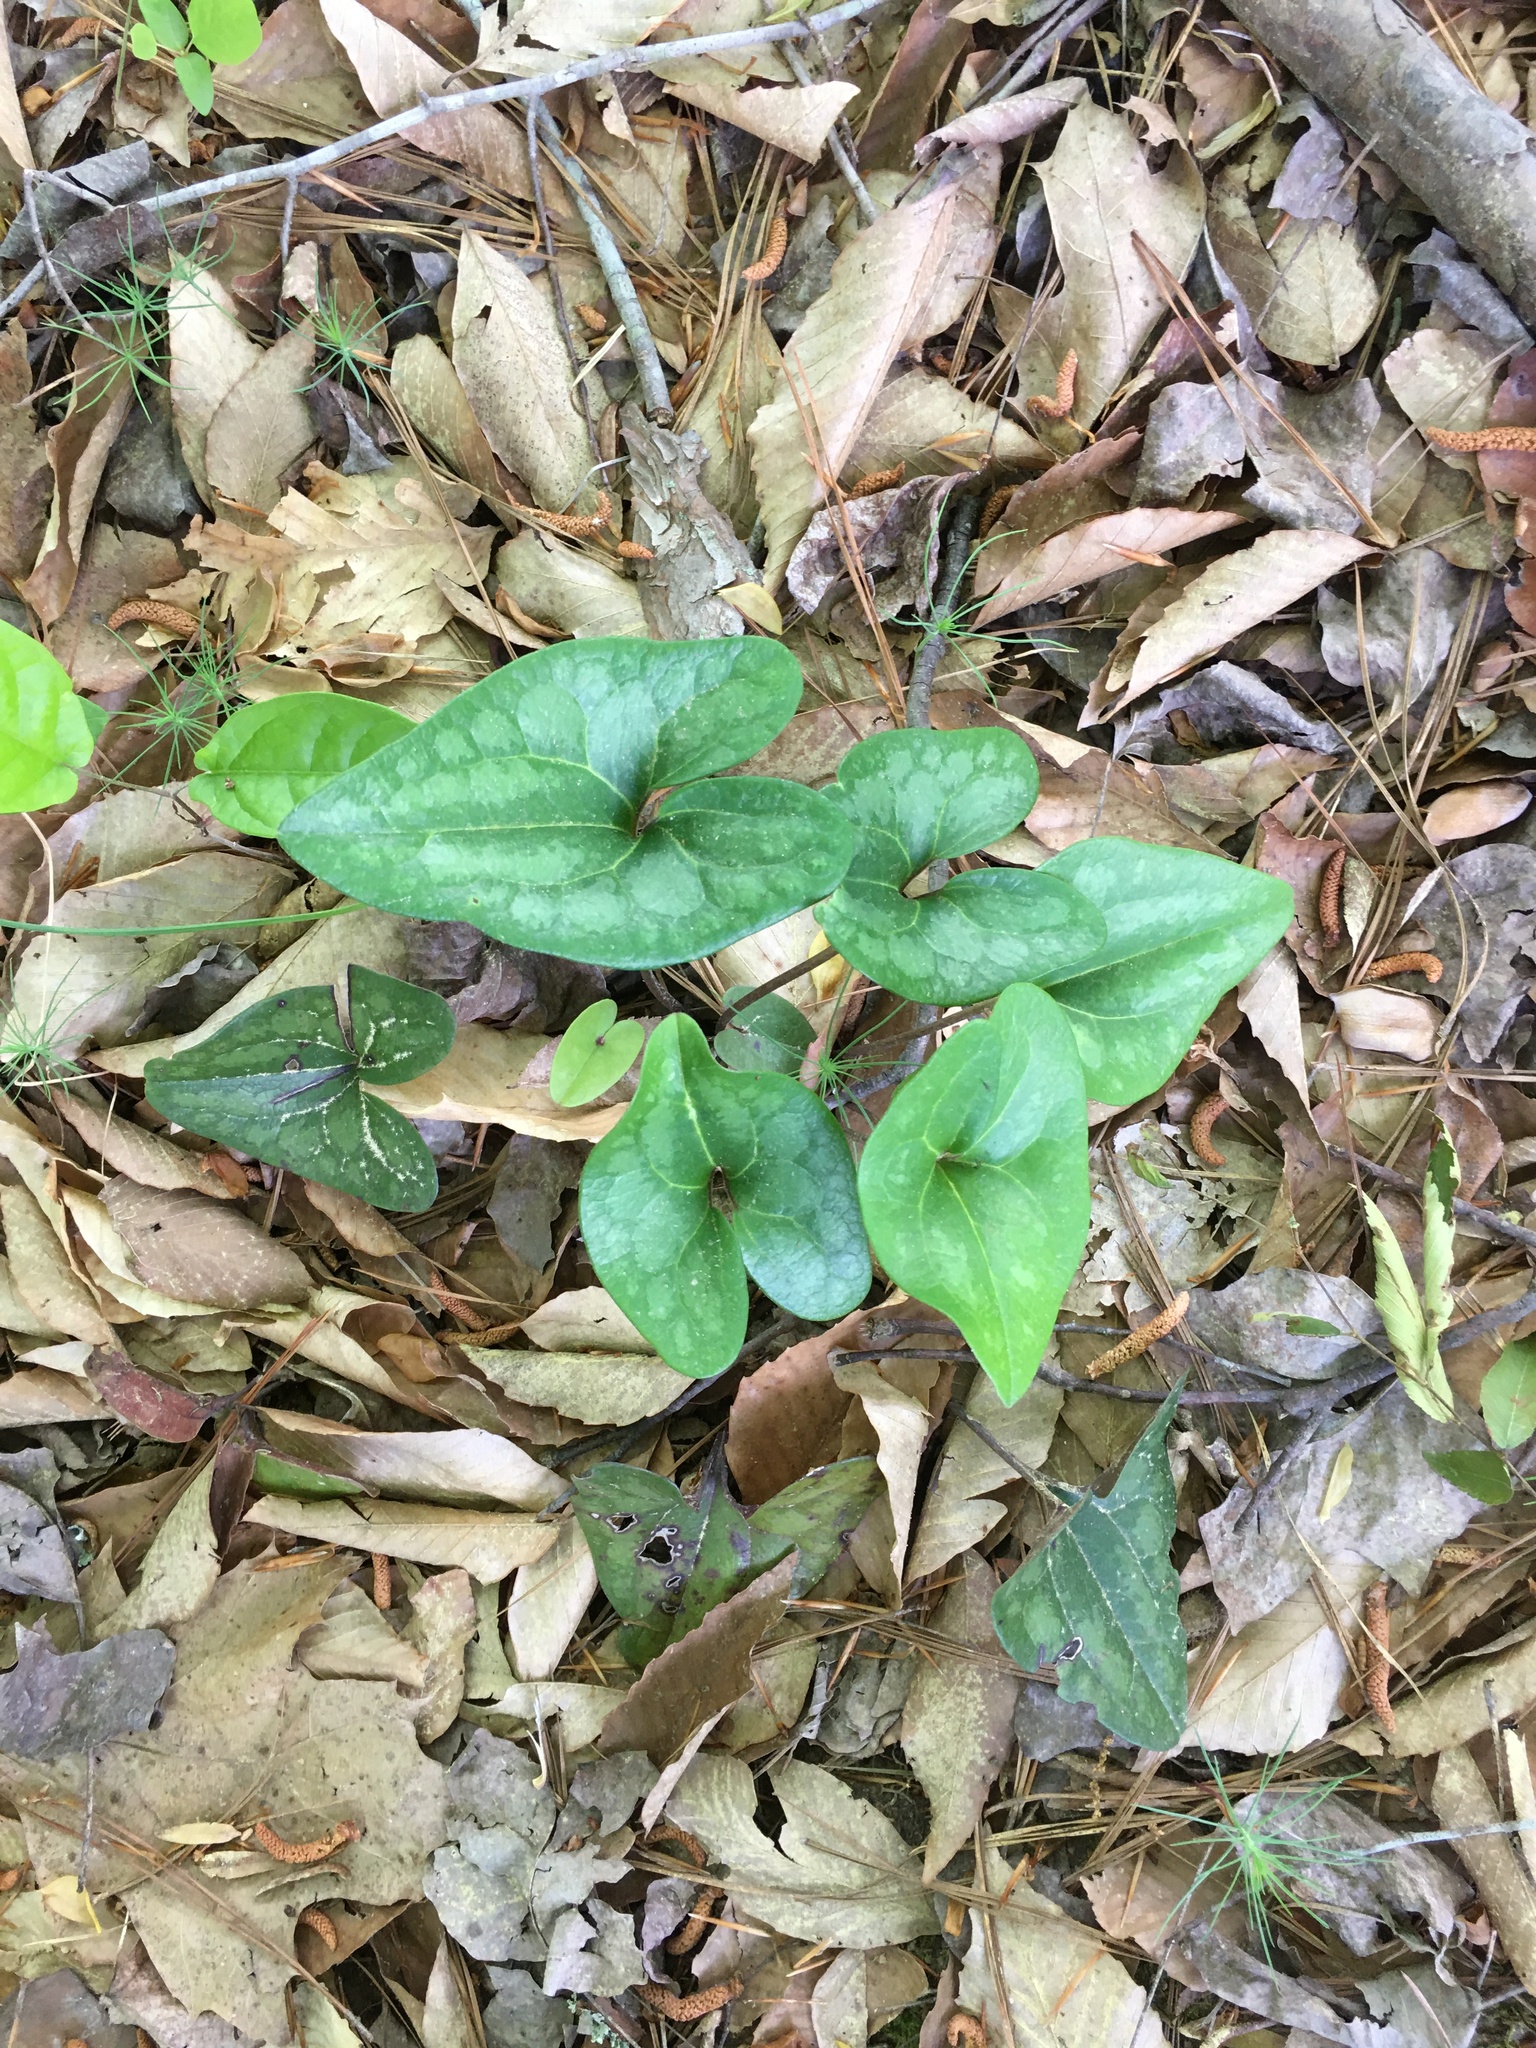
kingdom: Plantae
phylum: Tracheophyta
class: Magnoliopsida
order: Piperales
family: Aristolochiaceae
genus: Hexastylis
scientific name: Hexastylis arifolia
